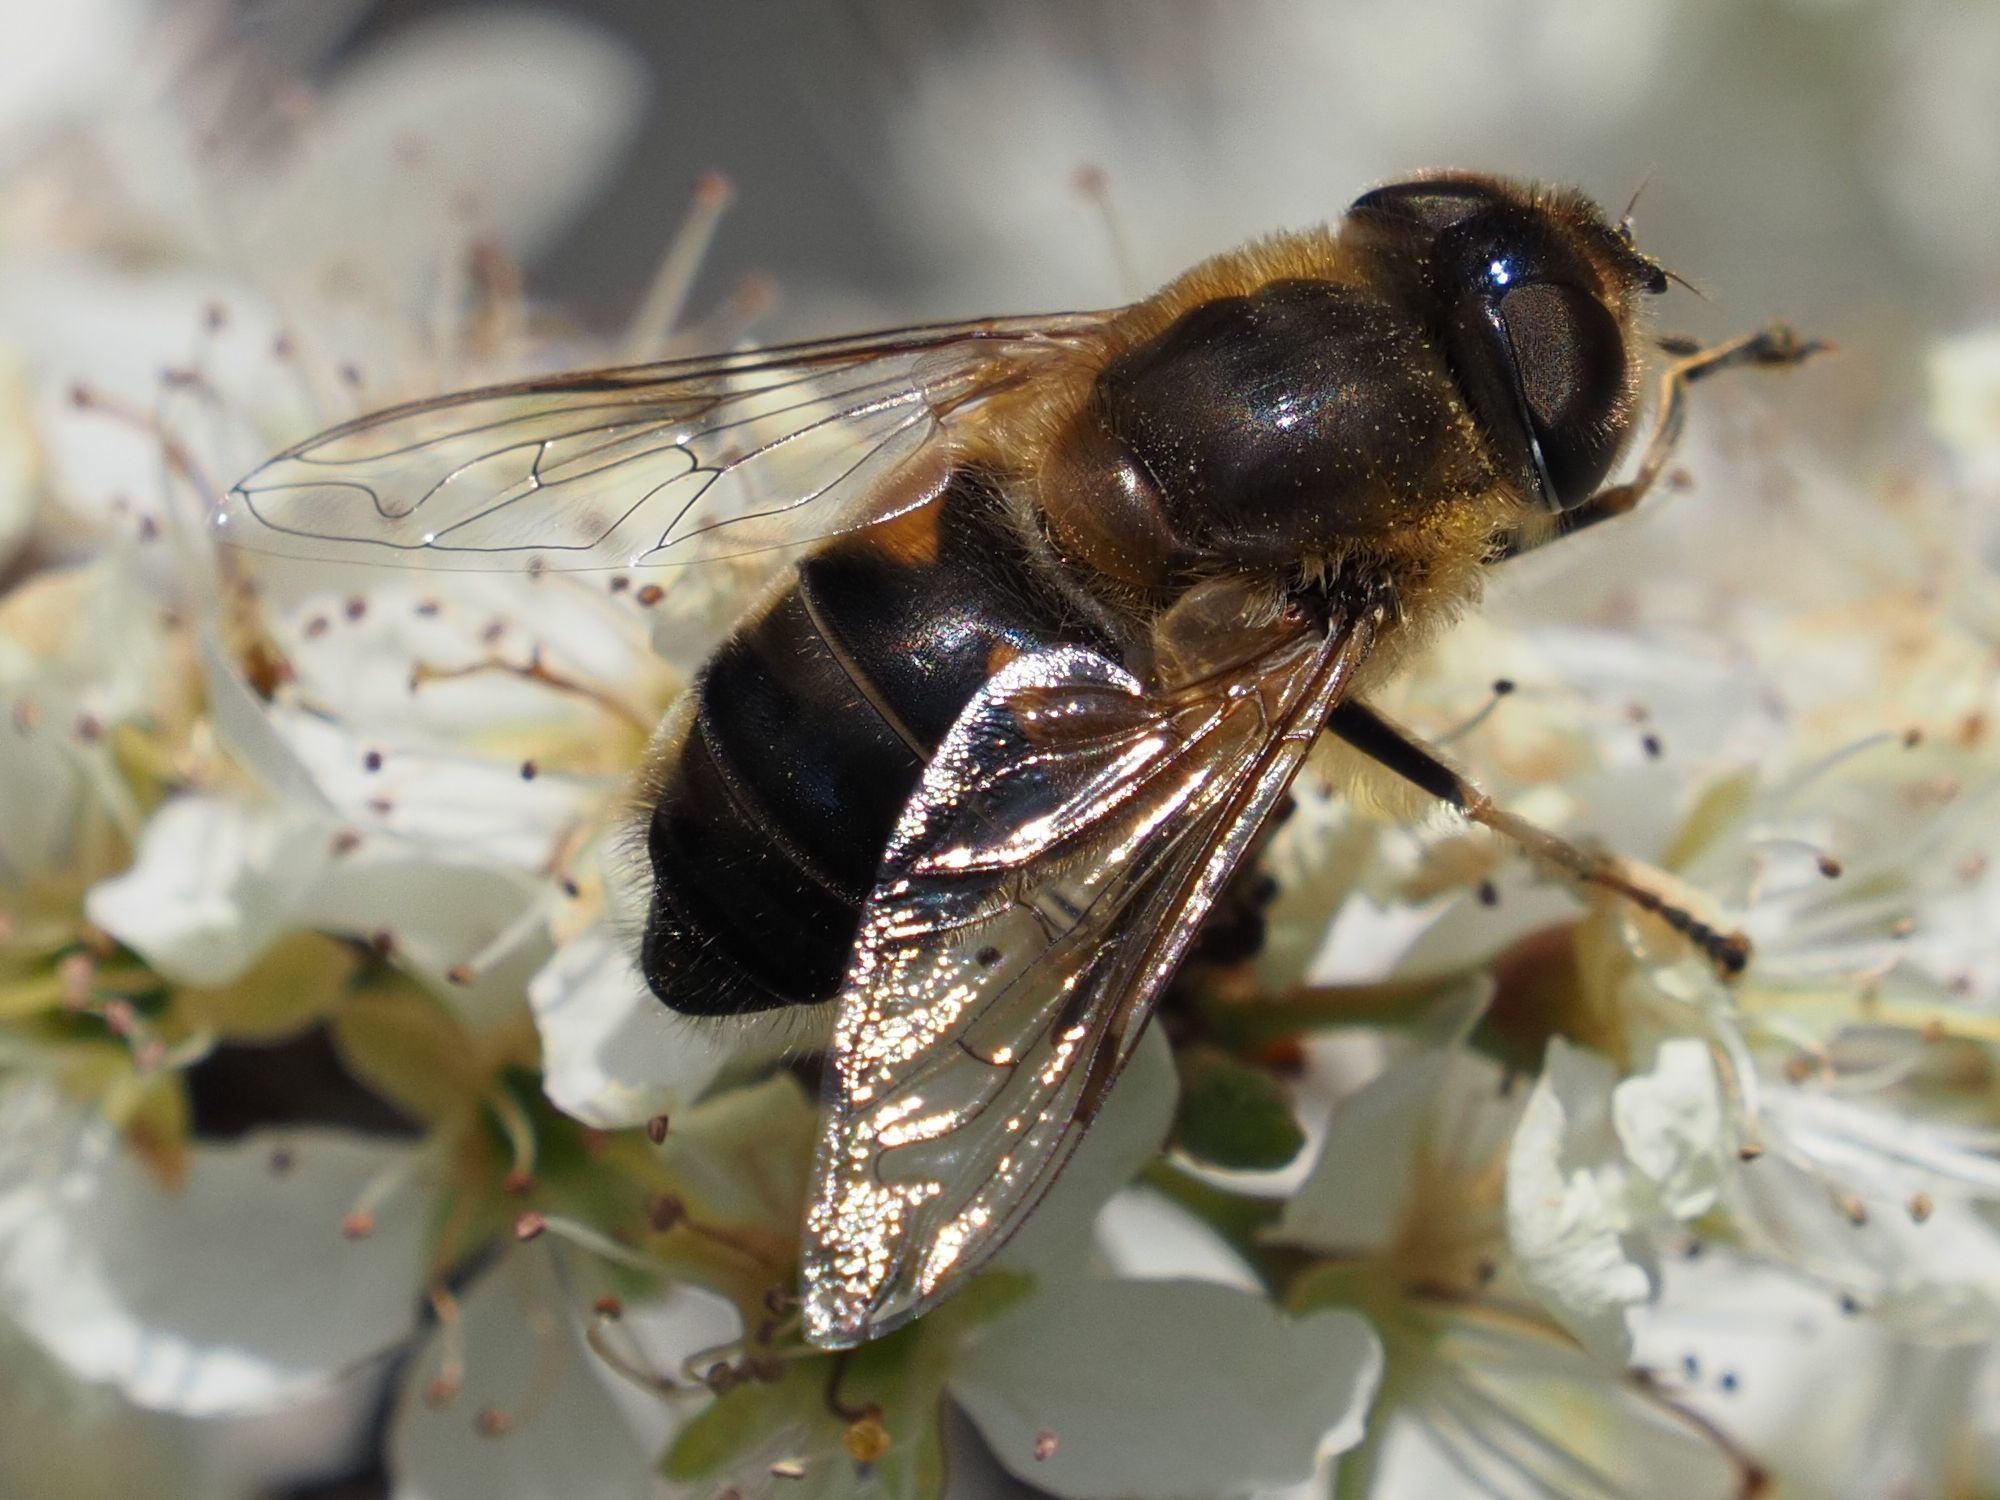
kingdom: Animalia
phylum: Arthropoda
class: Insecta
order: Diptera
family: Syrphidae
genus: Eristalis
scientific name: Eristalis pertinax
